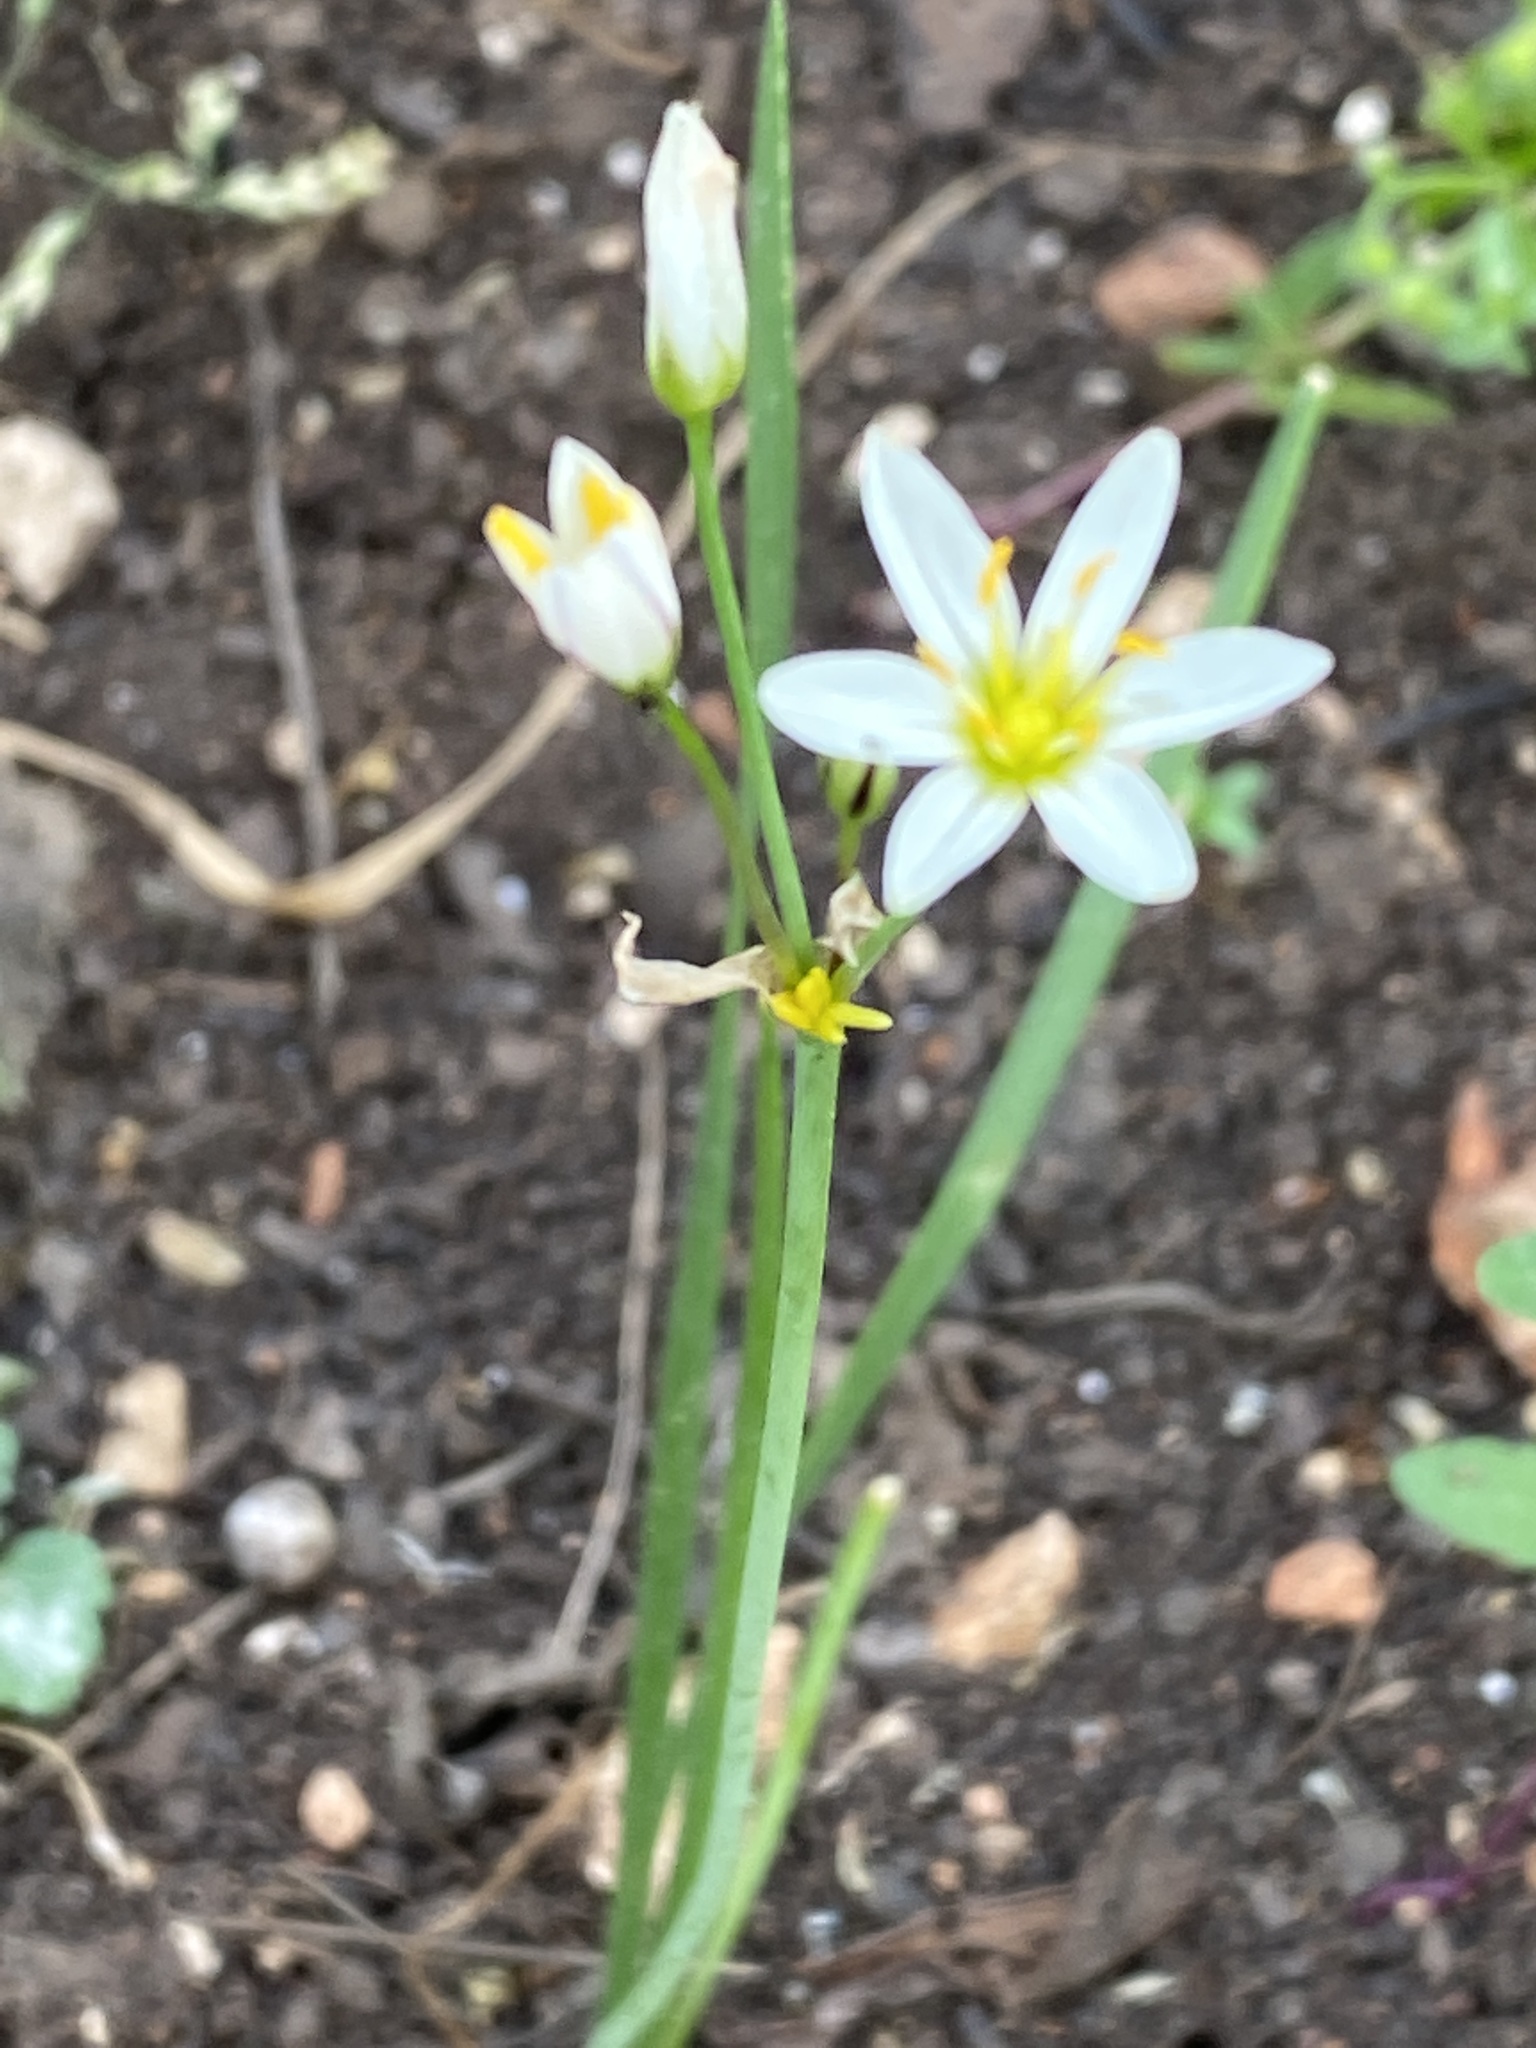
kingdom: Plantae
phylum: Tracheophyta
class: Liliopsida
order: Asparagales
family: Amaryllidaceae
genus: Nothoscordum
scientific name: Nothoscordum bivalve
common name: Crow-poison
